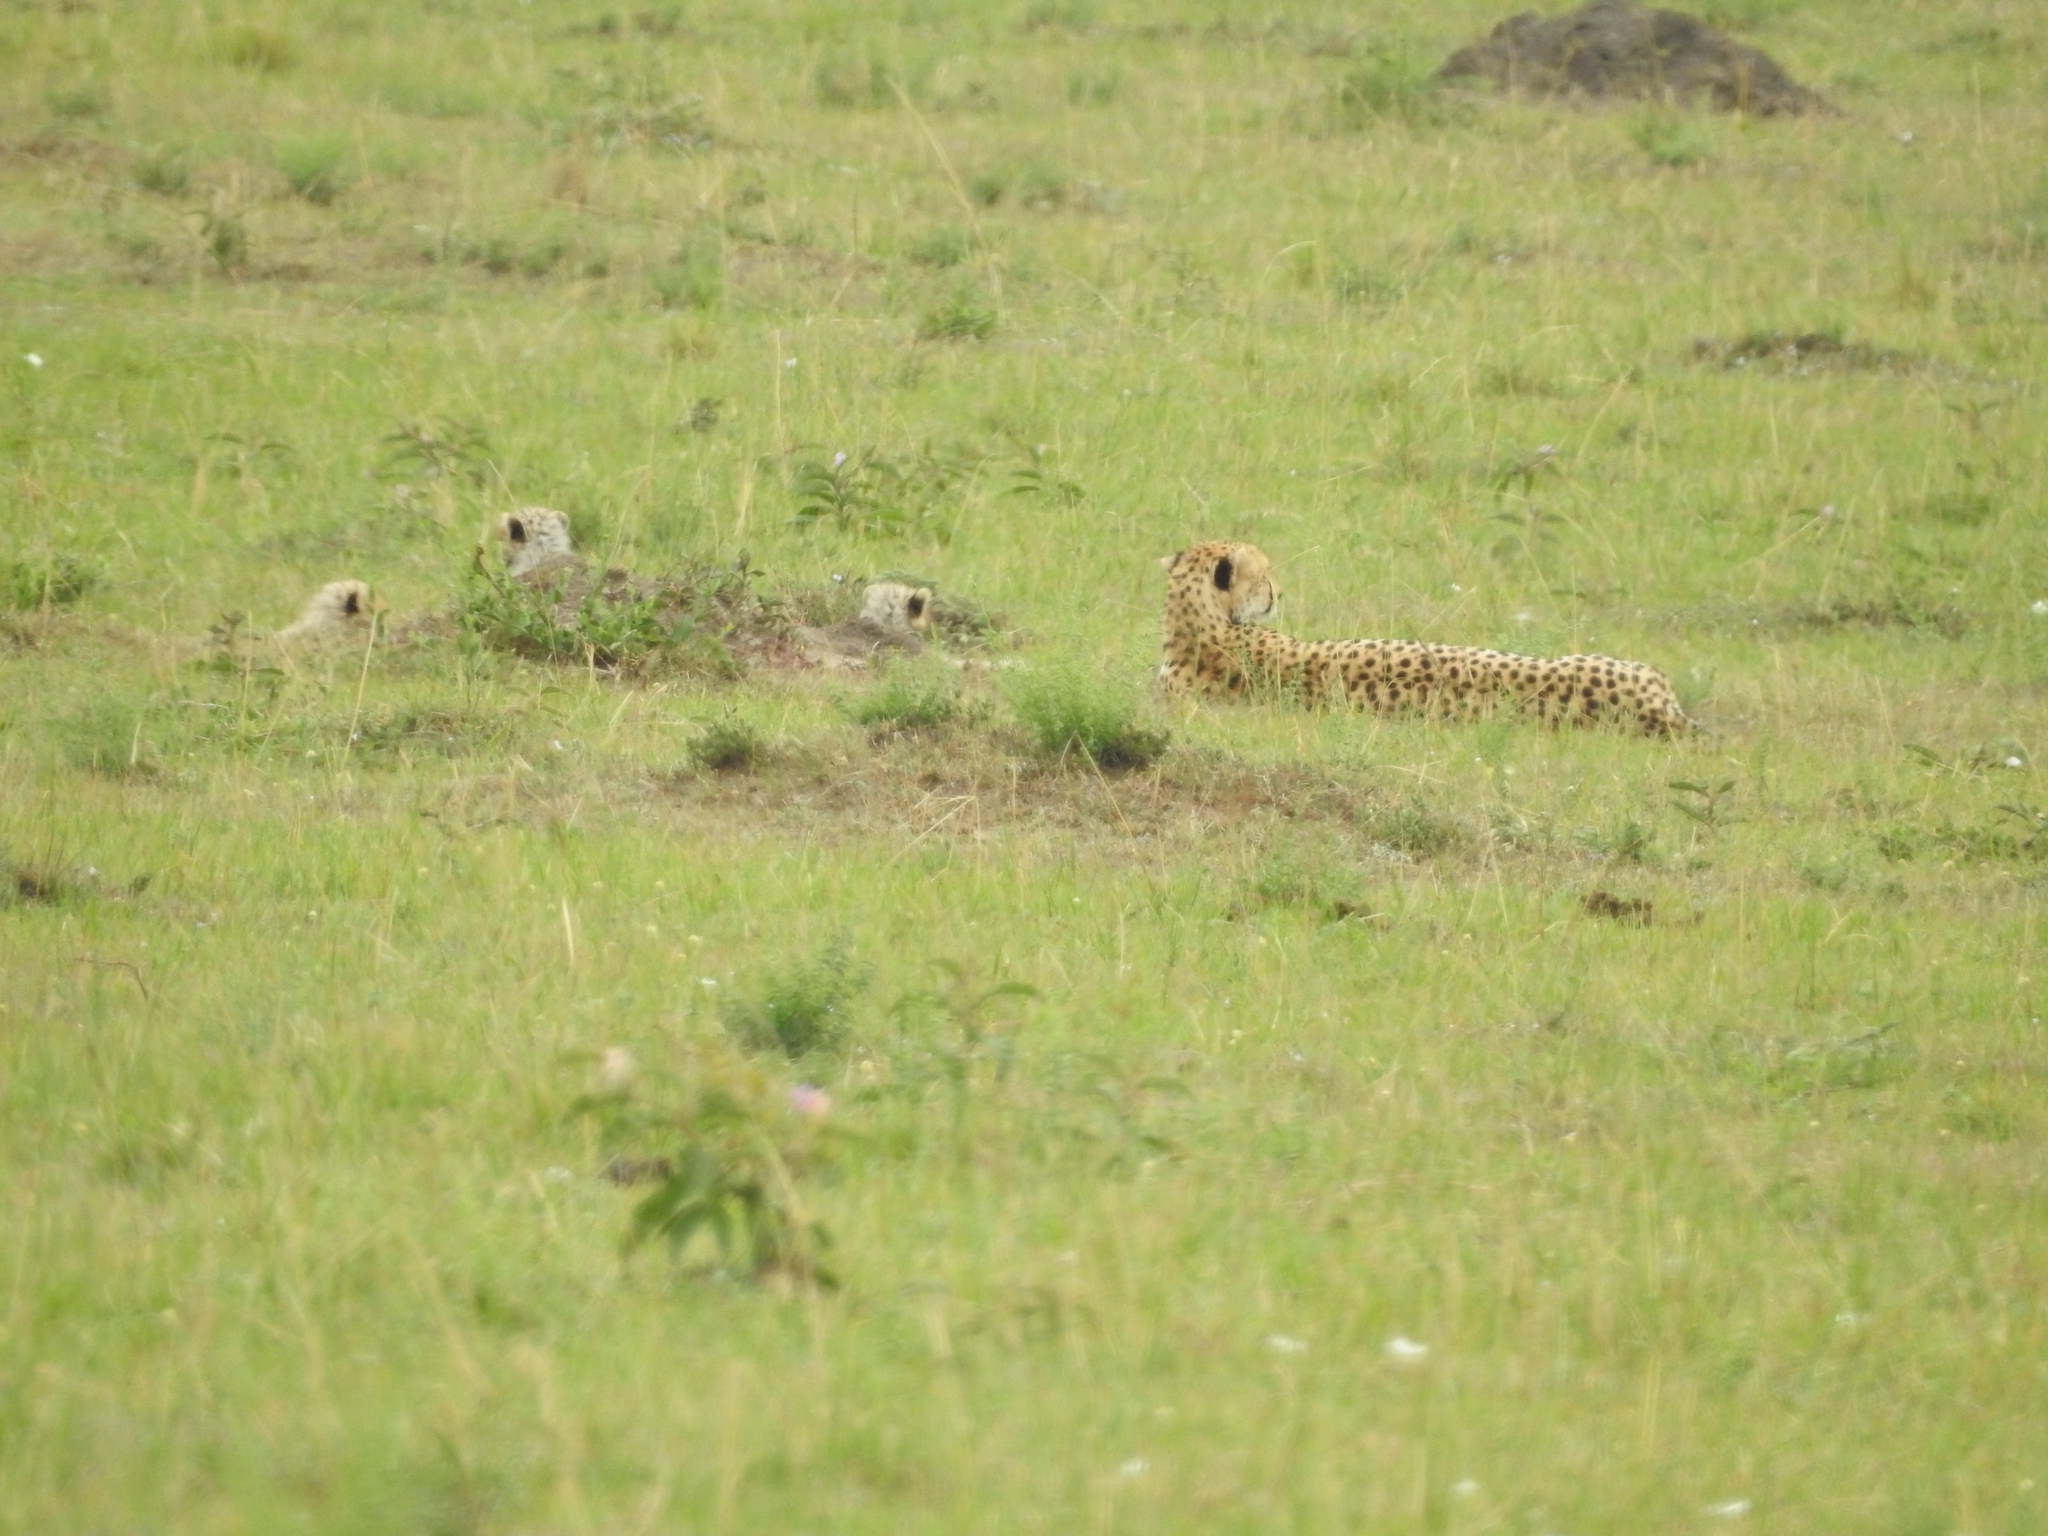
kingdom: Animalia
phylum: Chordata
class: Mammalia
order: Carnivora
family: Felidae
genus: Acinonyx
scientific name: Acinonyx jubatus
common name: Cheetah
